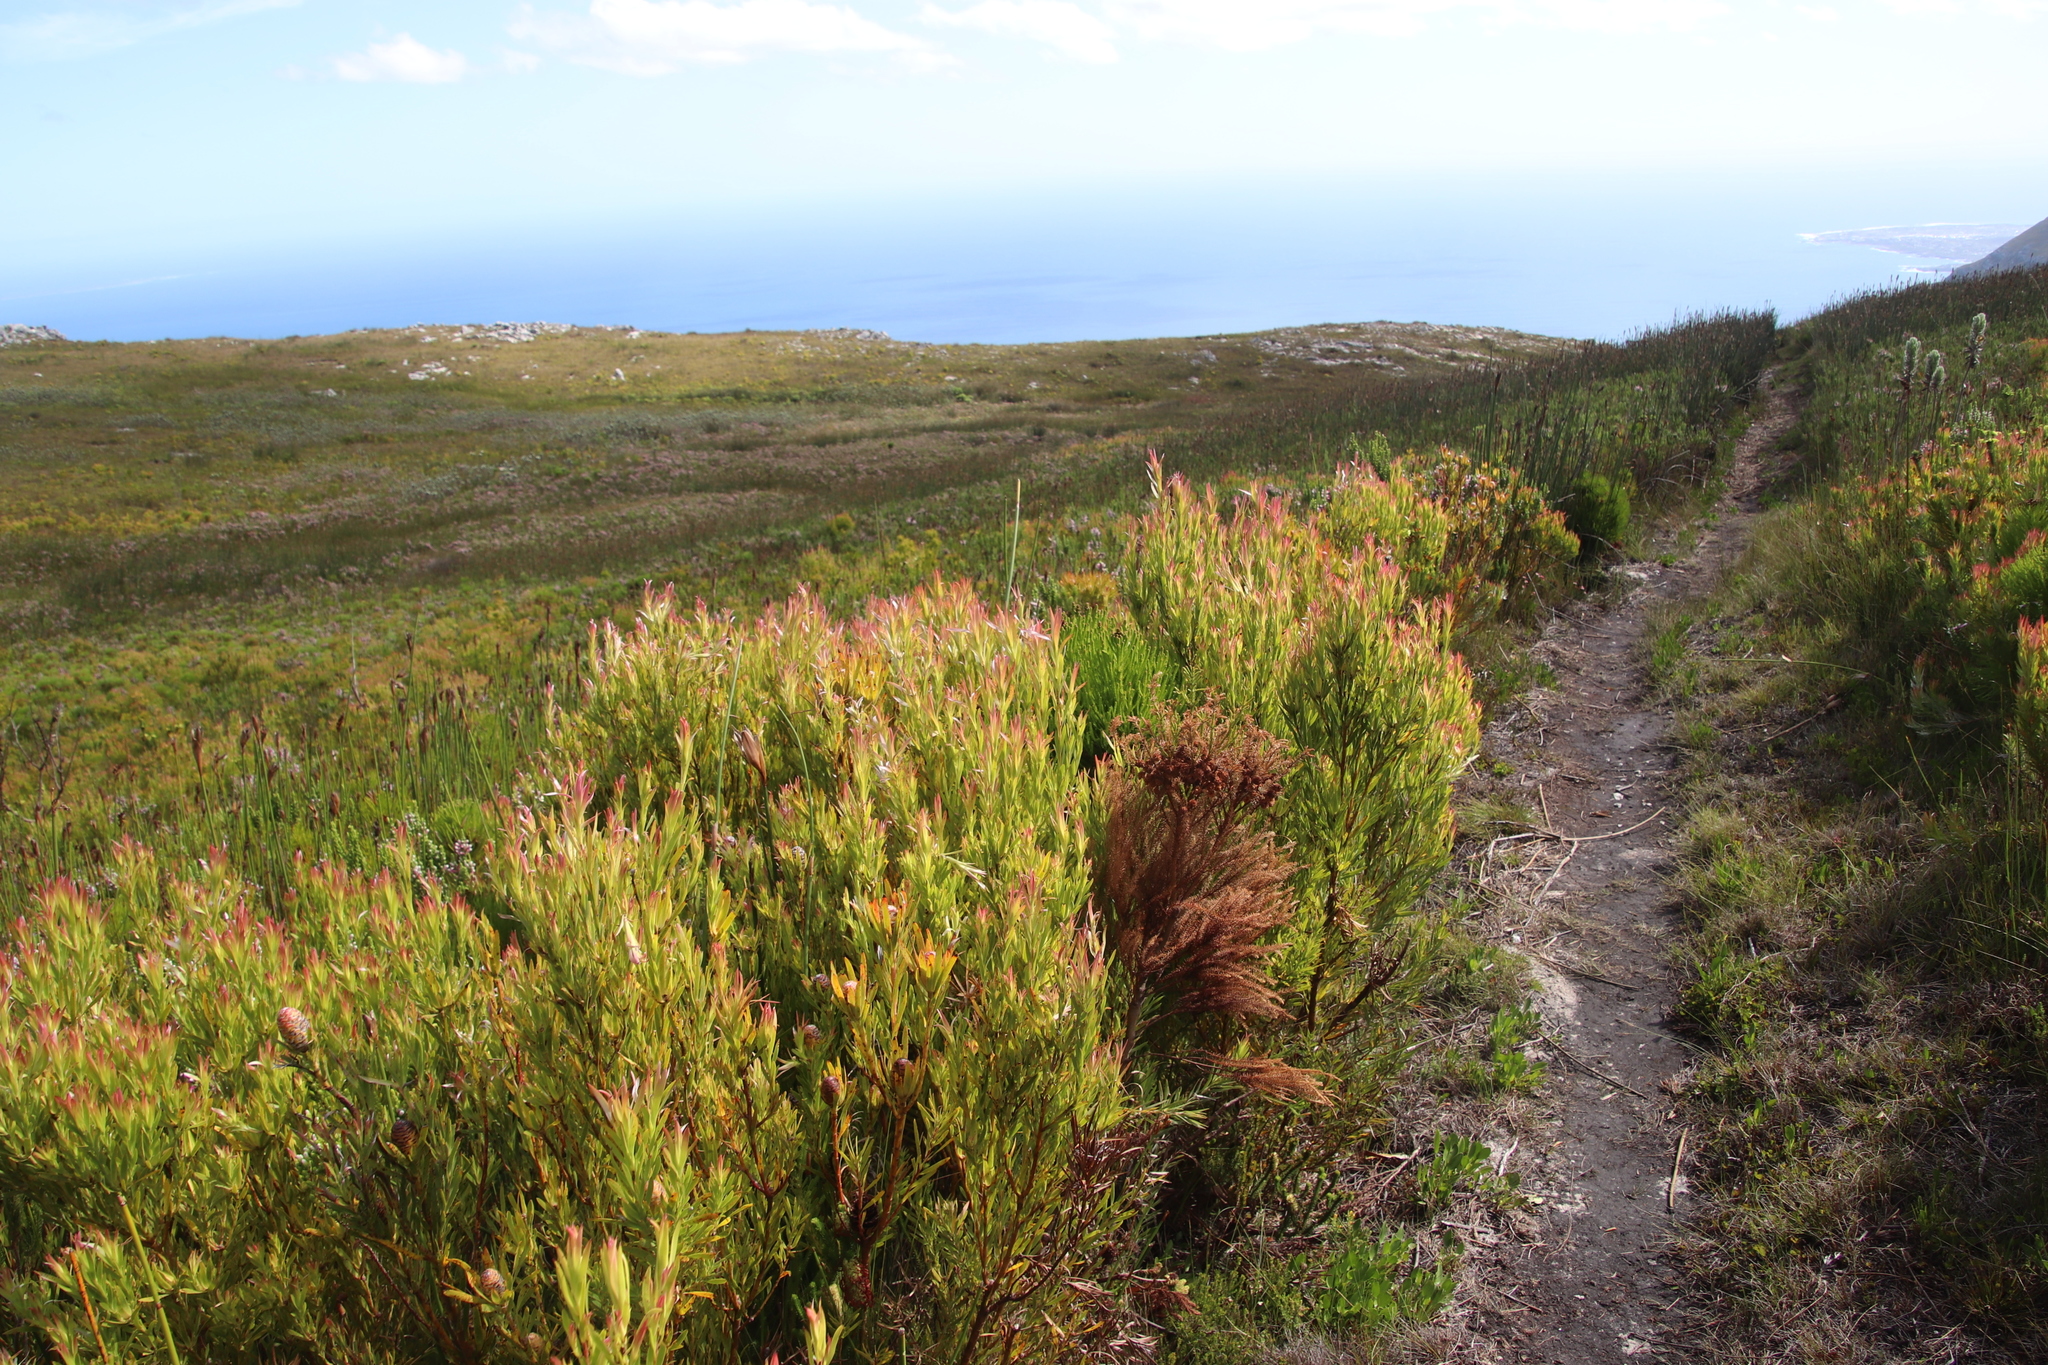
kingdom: Plantae
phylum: Tracheophyta
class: Magnoliopsida
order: Proteales
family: Proteaceae
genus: Leucadendron
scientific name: Leucadendron xanthoconus
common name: Sickle-leaf conebush
